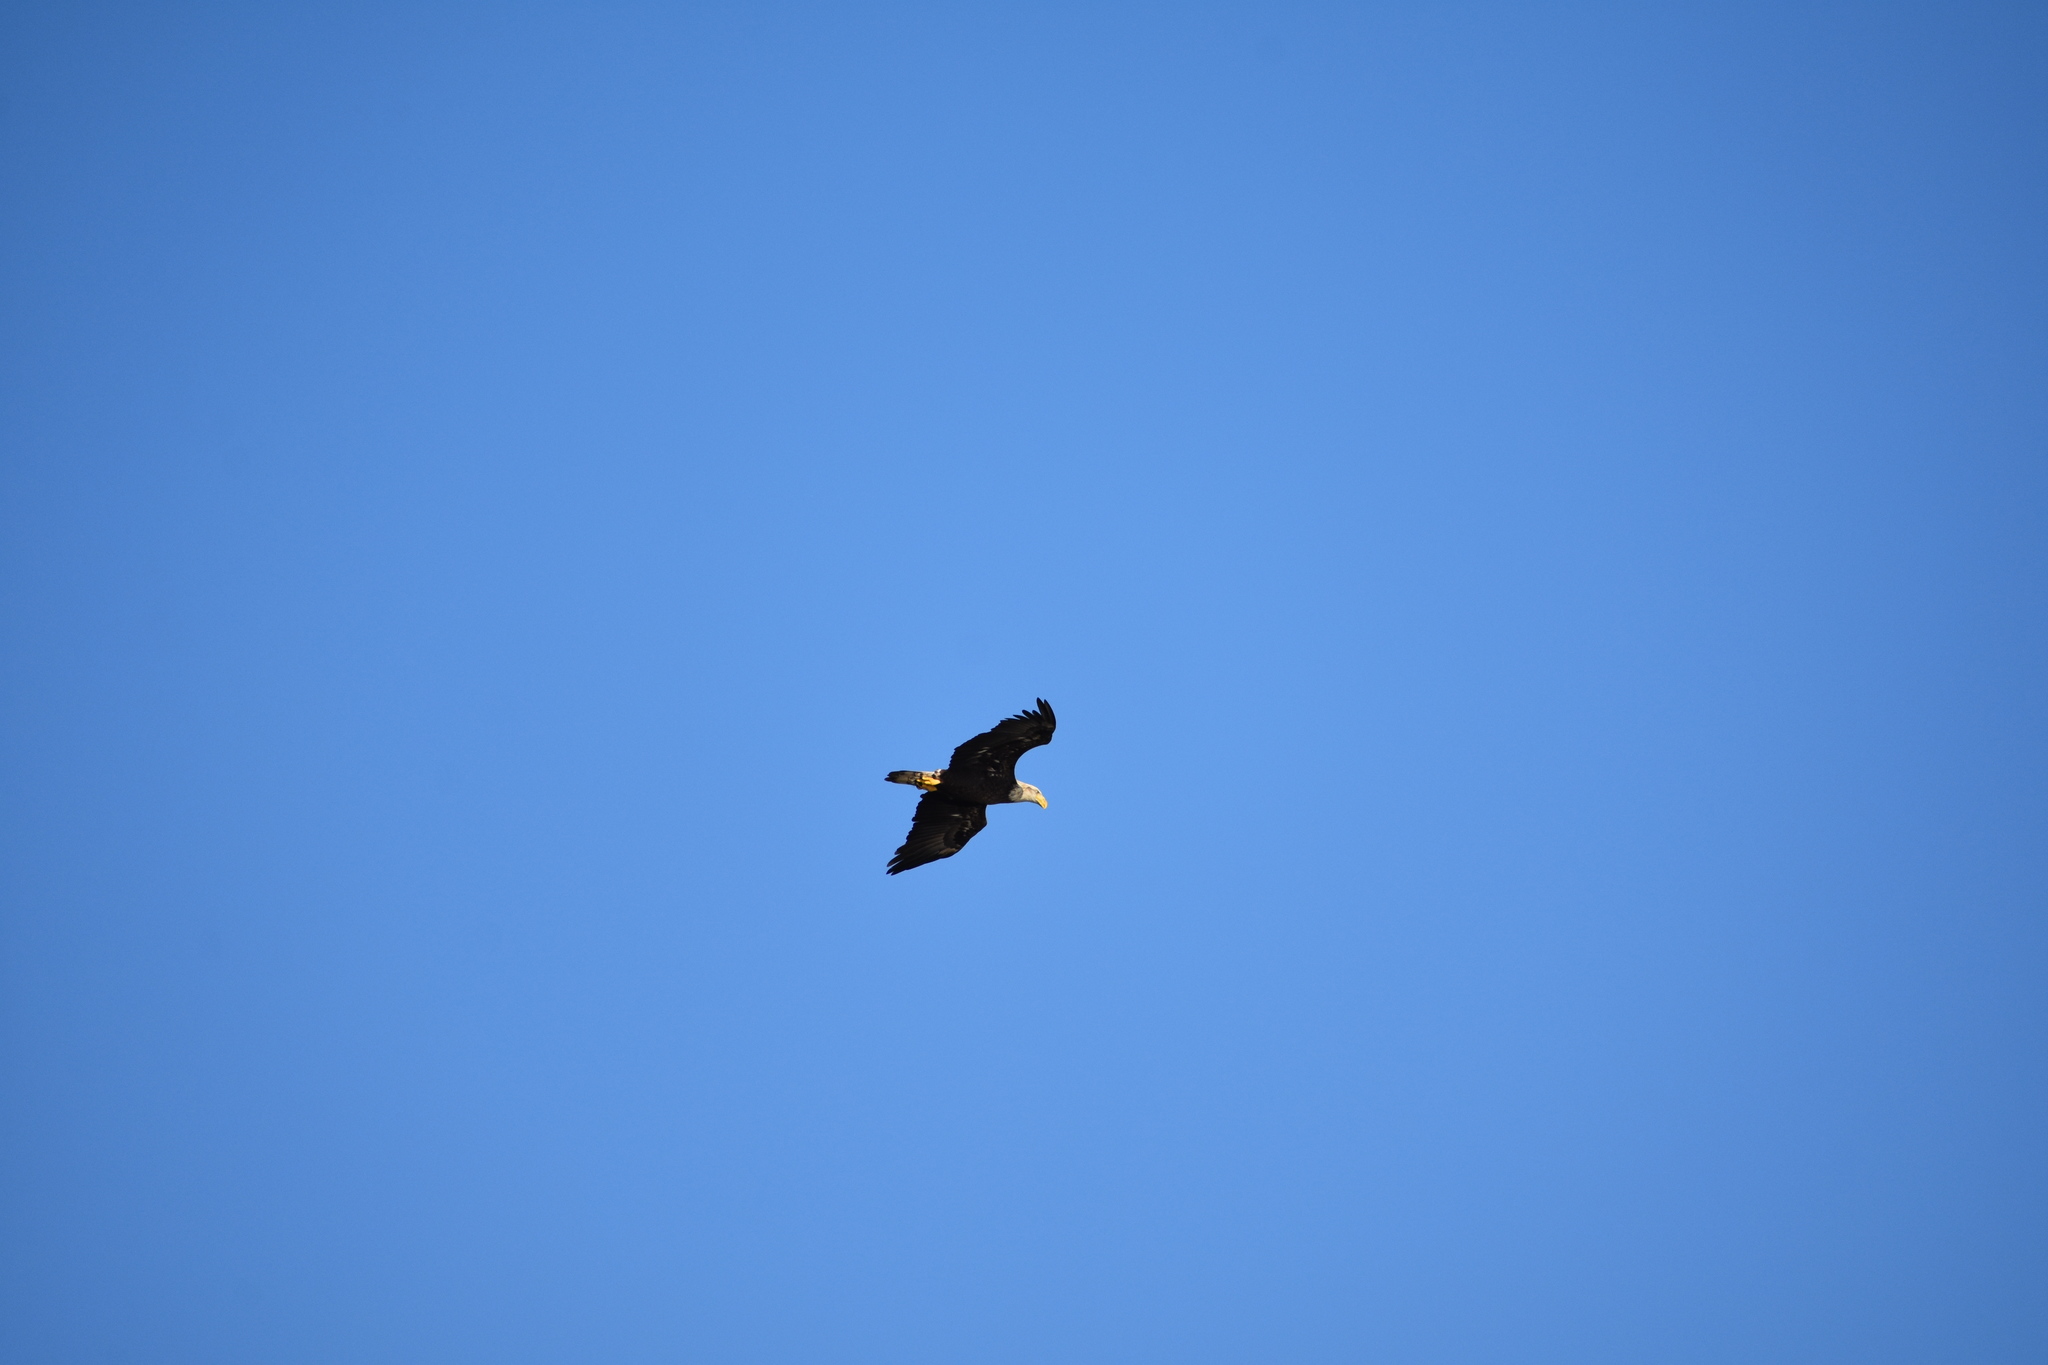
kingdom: Animalia
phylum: Chordata
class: Aves
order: Accipitriformes
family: Accipitridae
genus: Haliaeetus
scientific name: Haliaeetus leucocephalus
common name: Bald eagle
